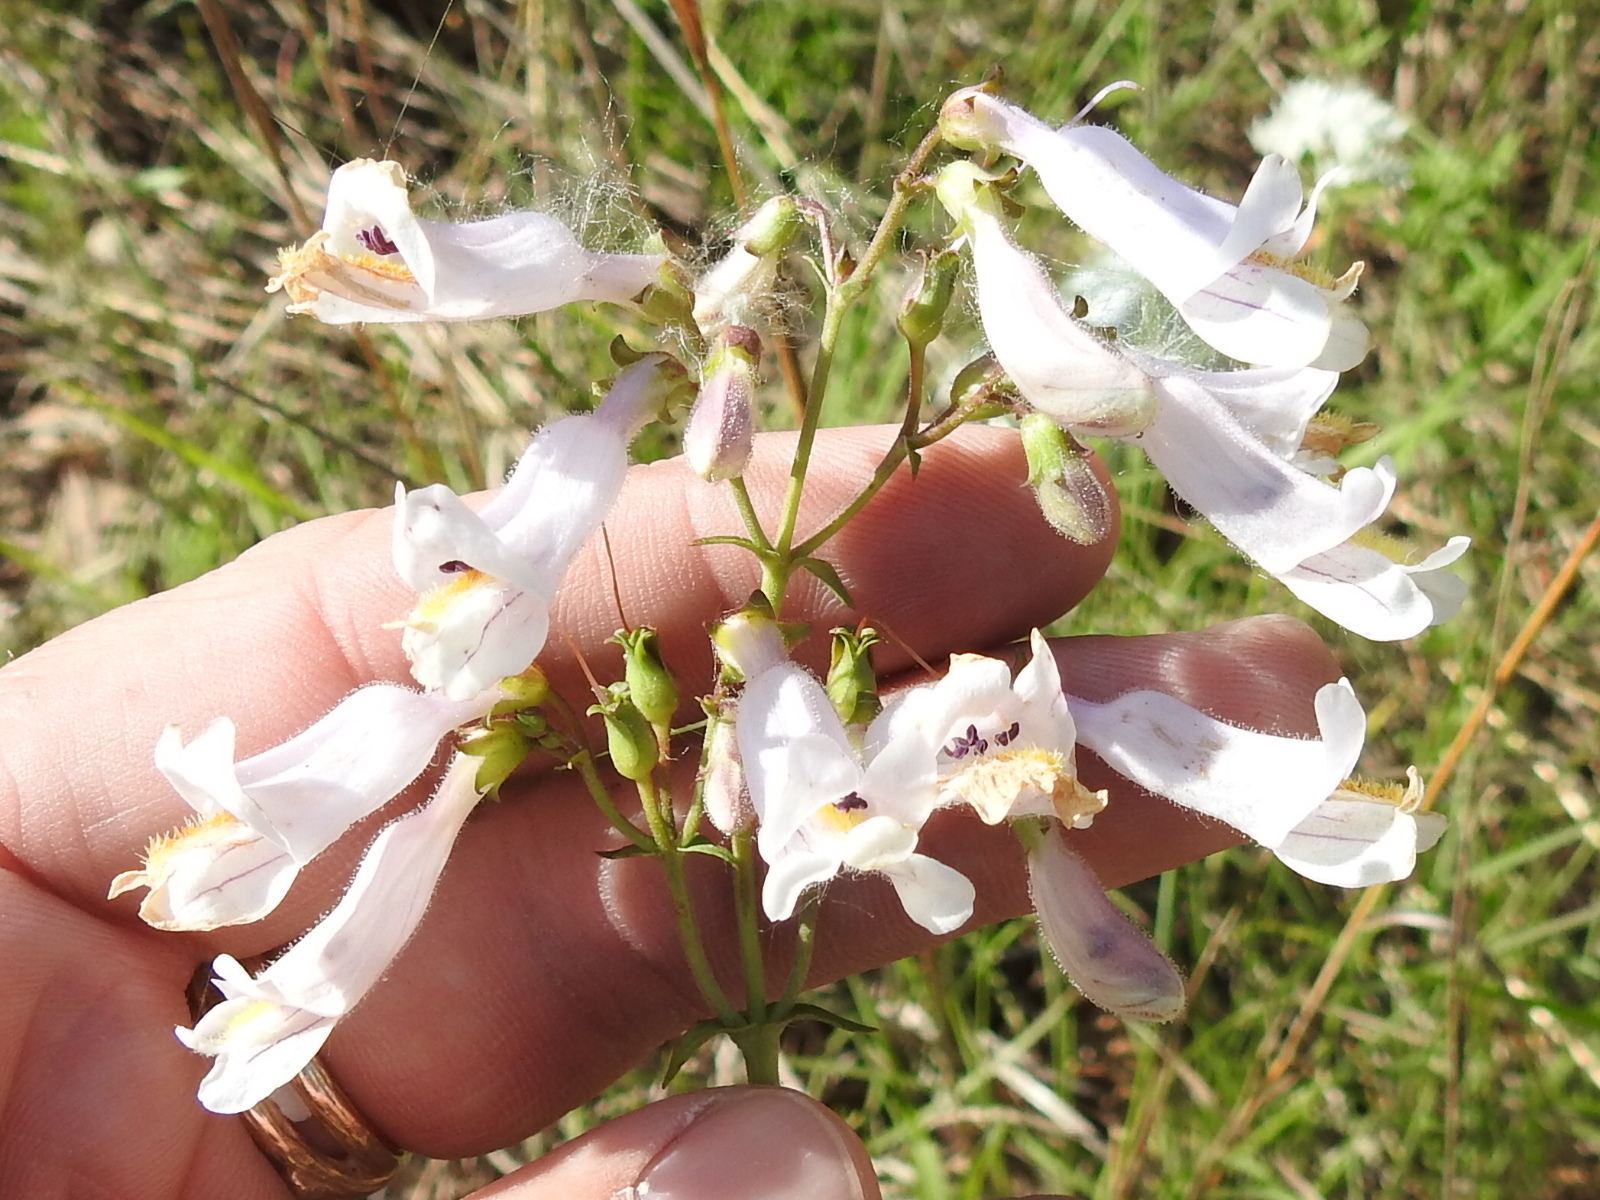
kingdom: Plantae
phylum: Tracheophyta
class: Magnoliopsida
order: Lamiales
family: Plantaginaceae
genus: Penstemon
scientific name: Penstemon laxiflorus
